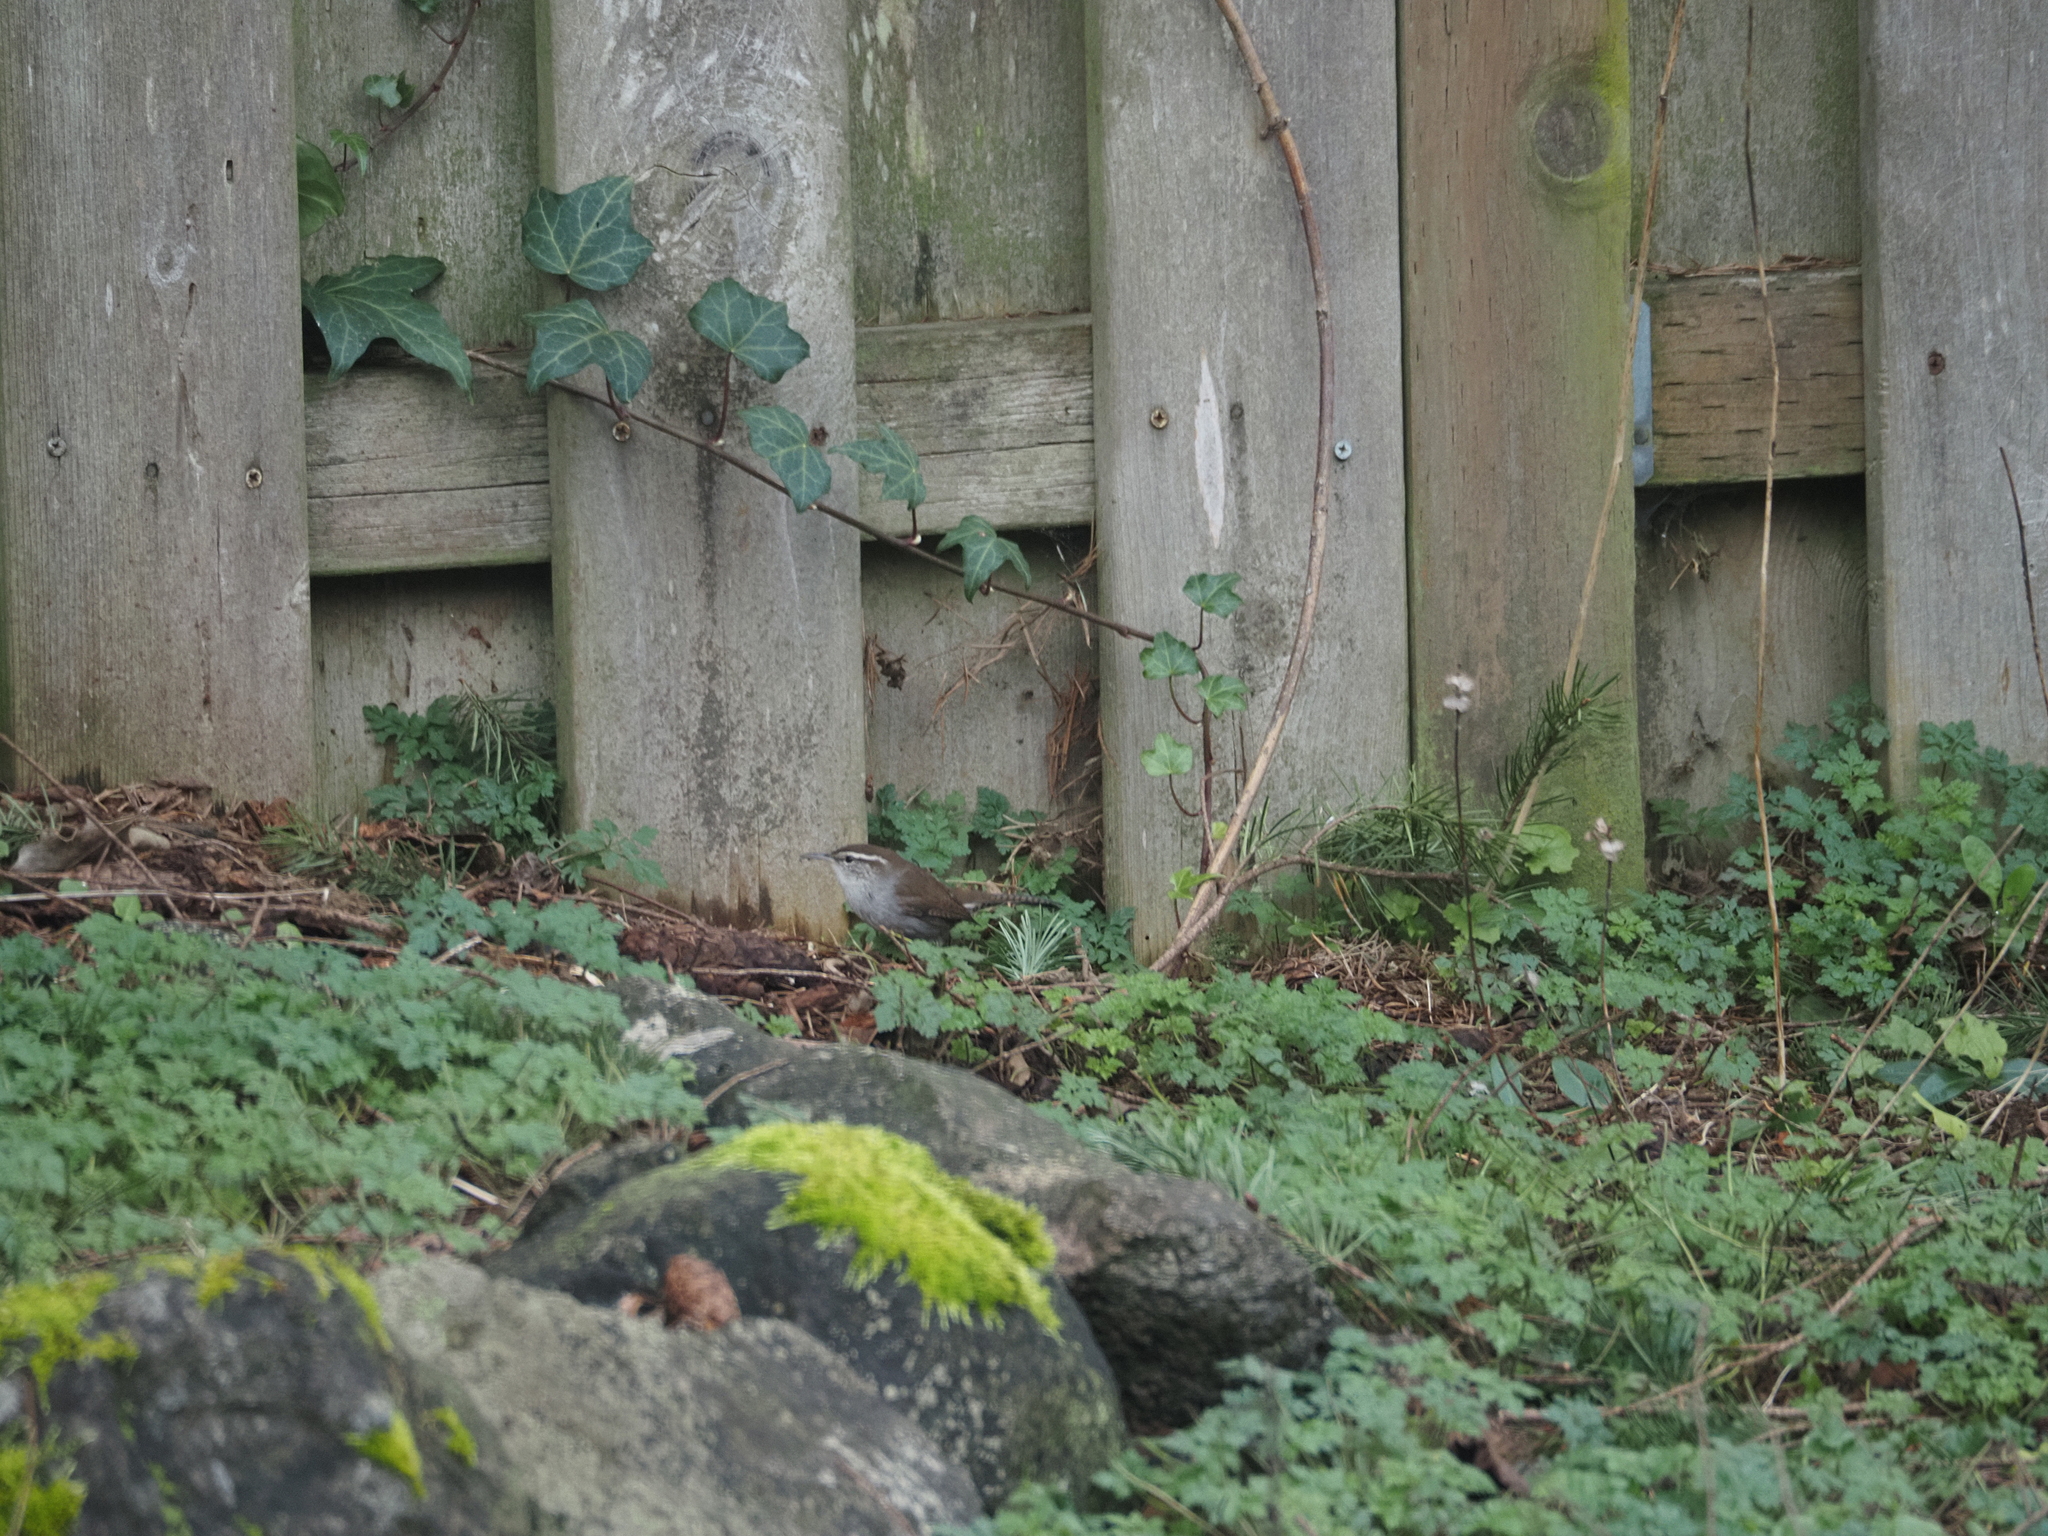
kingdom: Animalia
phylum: Chordata
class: Aves
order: Passeriformes
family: Troglodytidae
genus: Thryomanes
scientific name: Thryomanes bewickii
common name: Bewick's wren
